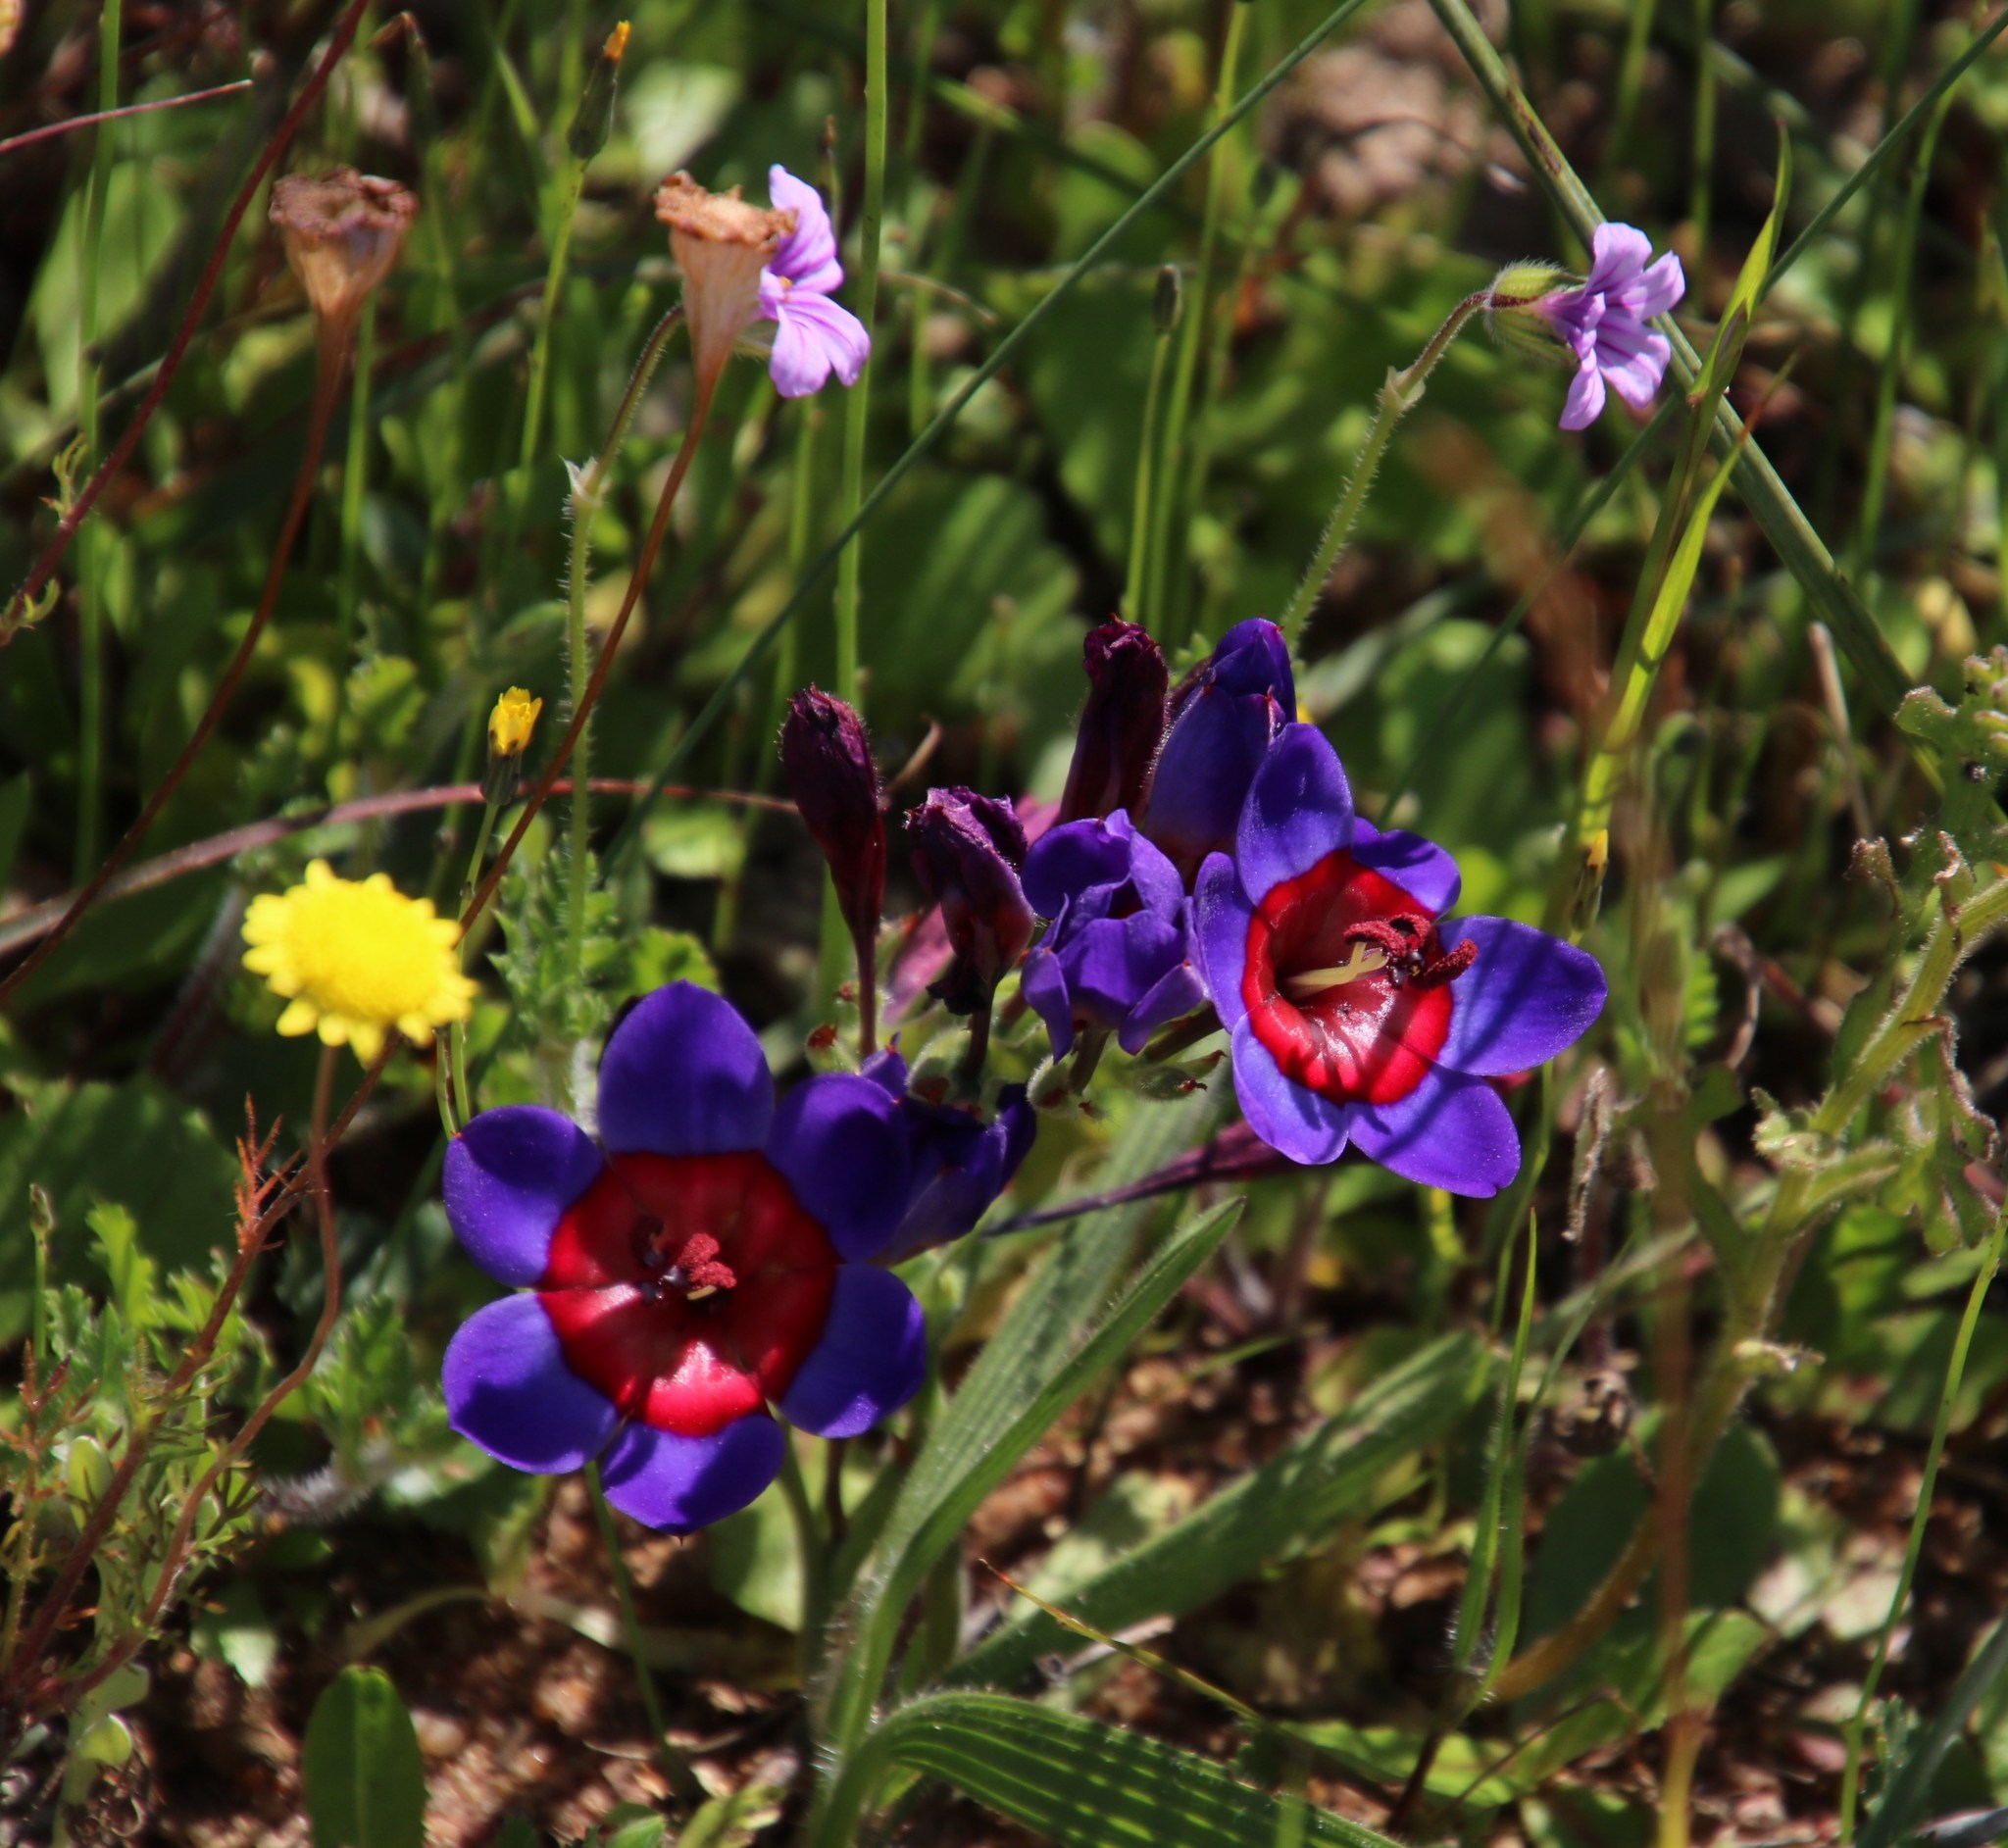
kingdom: Plantae
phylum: Tracheophyta
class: Liliopsida
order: Asparagales
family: Iridaceae
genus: Babiana
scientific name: Babiana rubrocyanea
